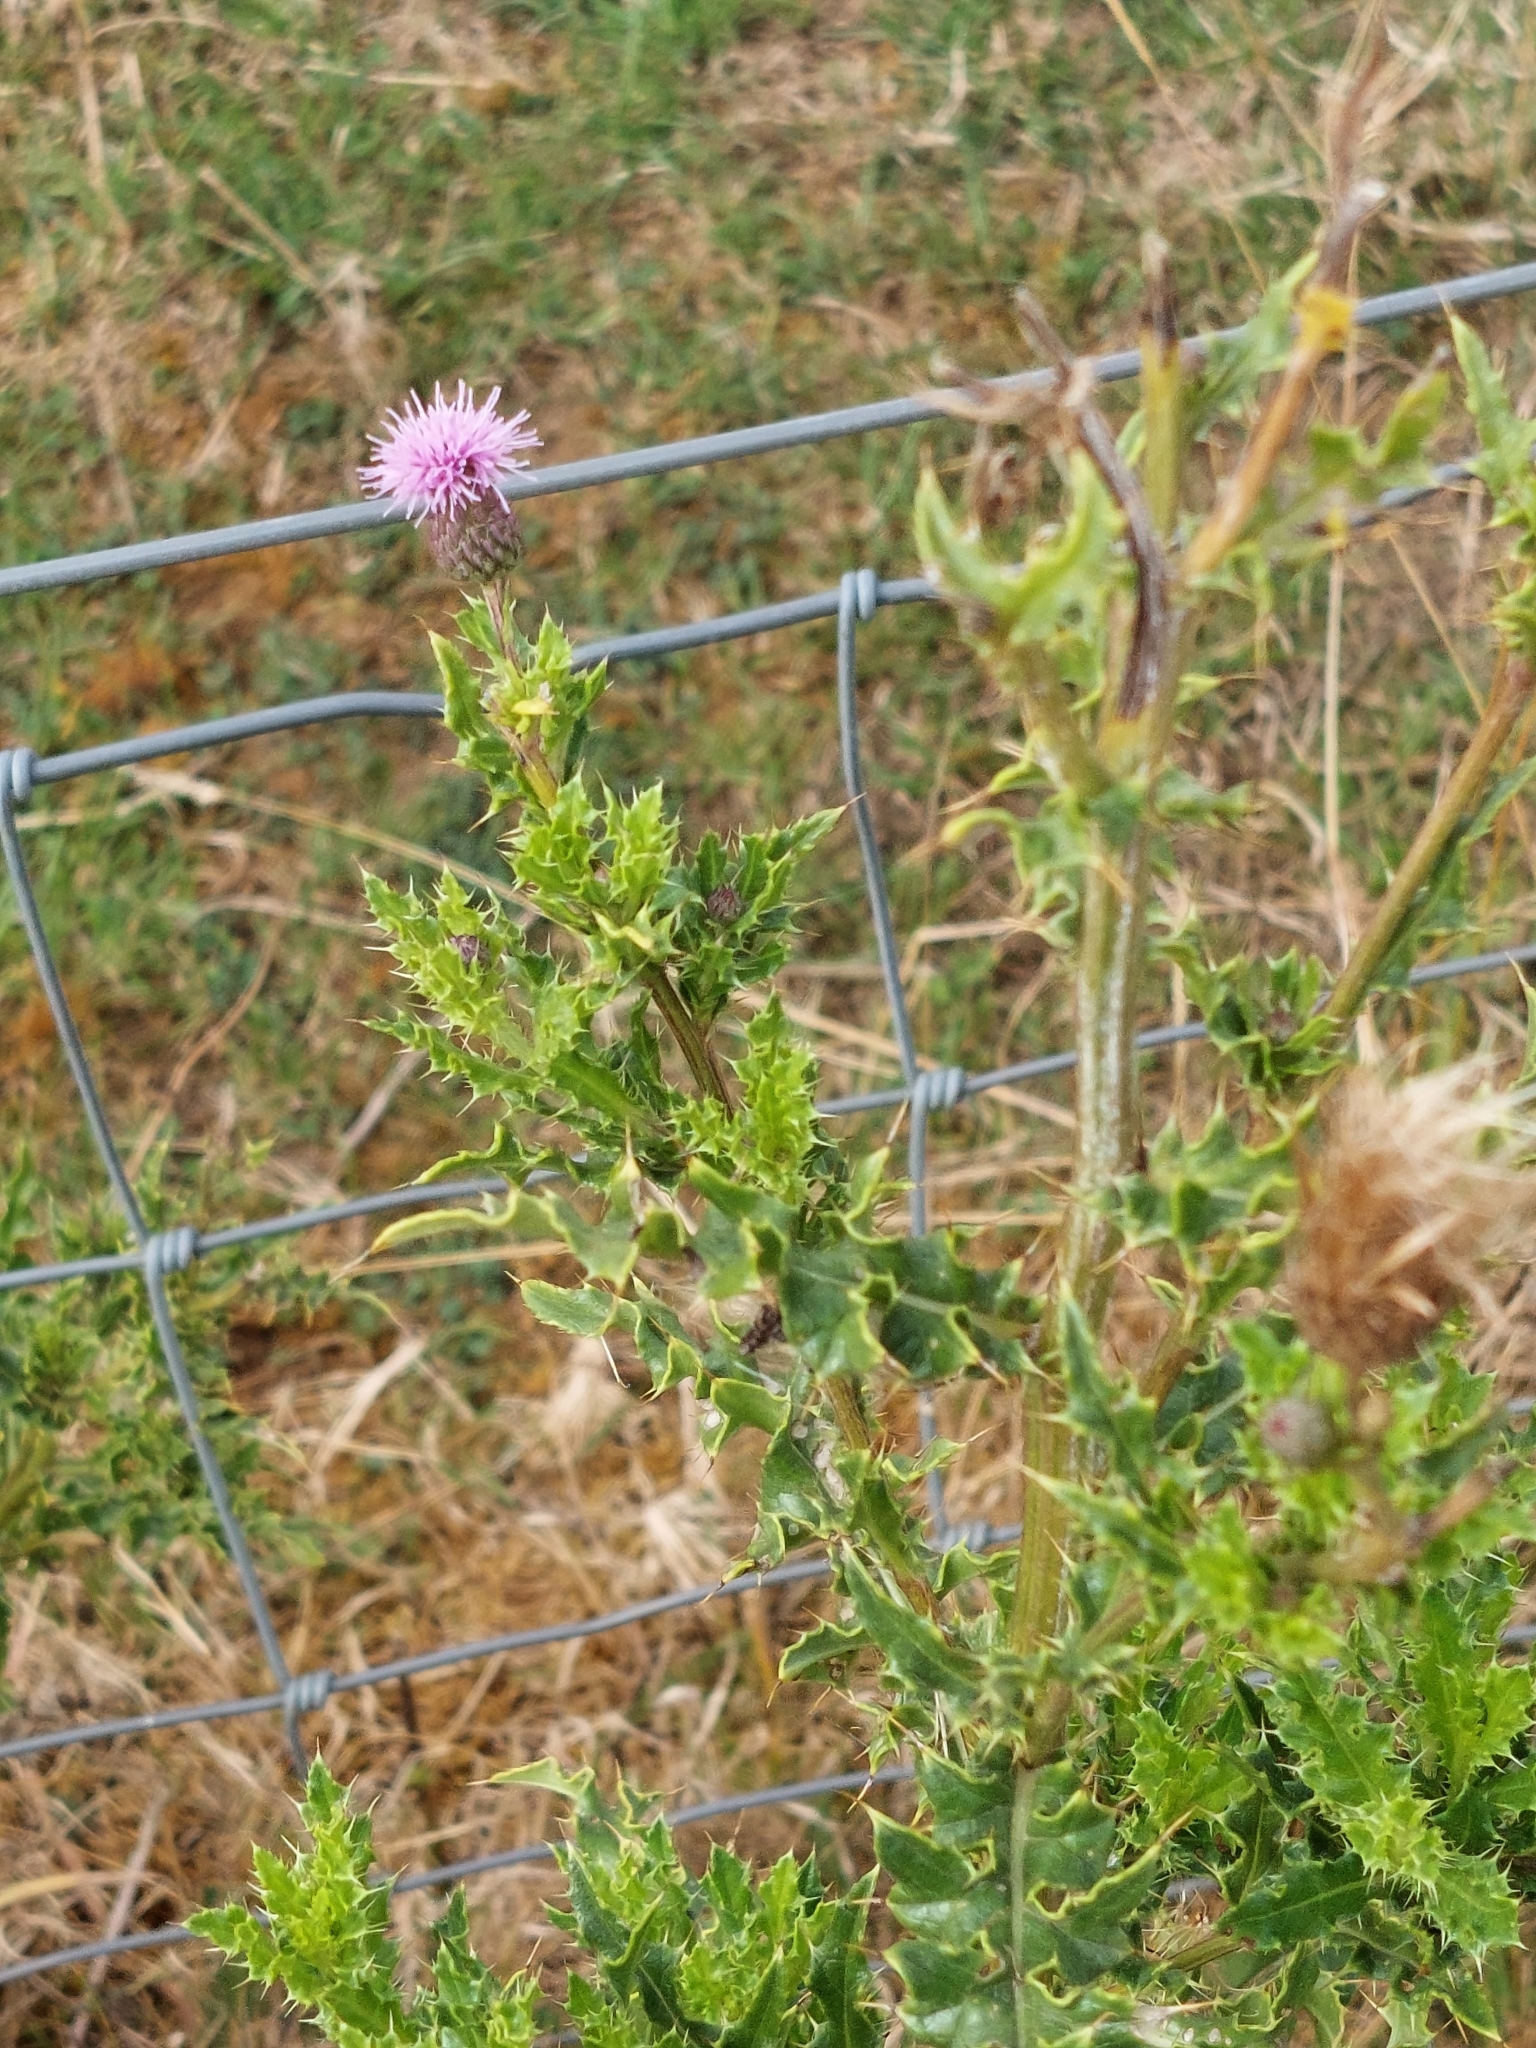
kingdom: Plantae
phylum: Tracheophyta
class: Magnoliopsida
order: Asterales
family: Asteraceae
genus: Cirsium
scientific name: Cirsium arvense
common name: Creeping thistle
